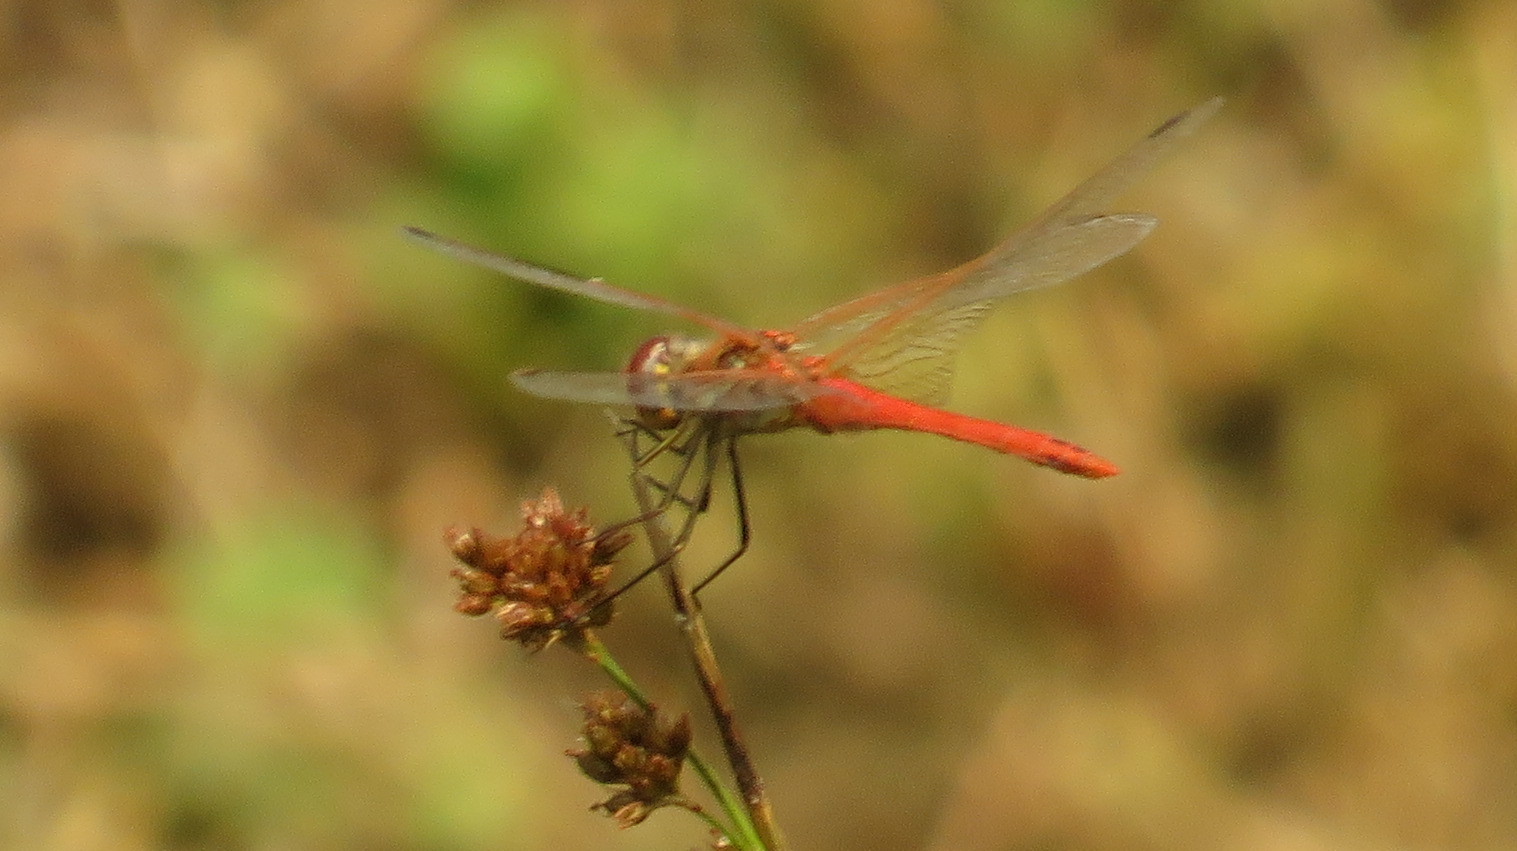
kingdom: Animalia
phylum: Arthropoda
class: Insecta
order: Odonata
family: Libellulidae
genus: Sympetrum
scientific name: Sympetrum fonscolombii
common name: Red-veined darter
